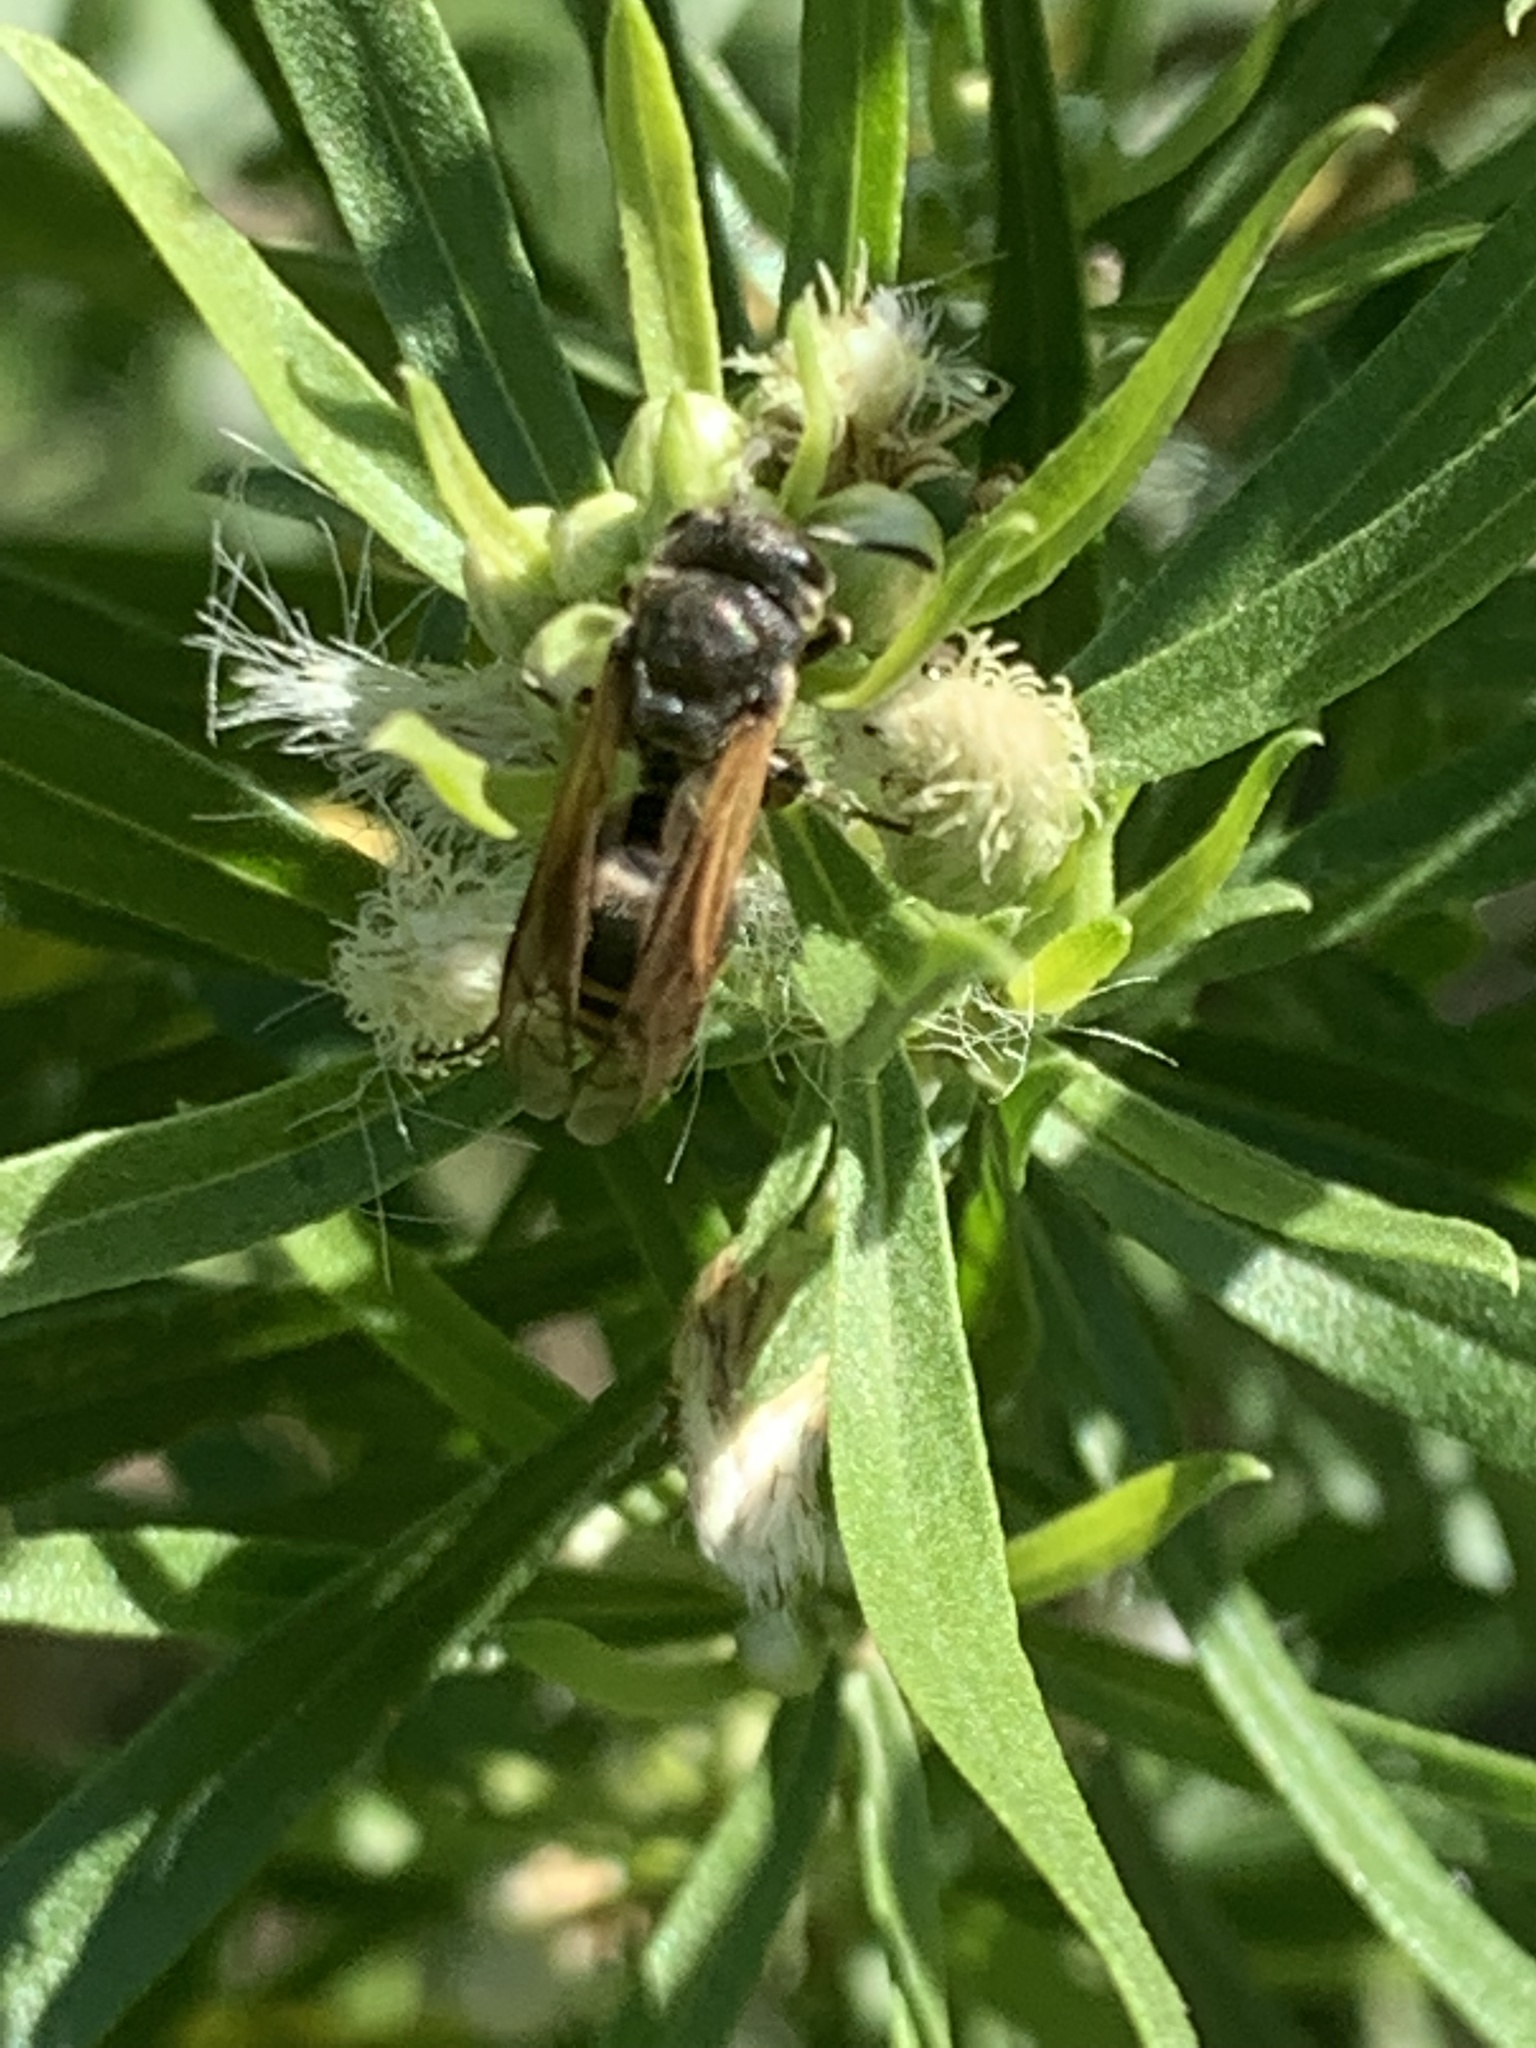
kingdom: Animalia
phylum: Arthropoda
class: Insecta
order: Hymenoptera
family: Vespidae
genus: Brachygastra
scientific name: Brachygastra lecheguana
